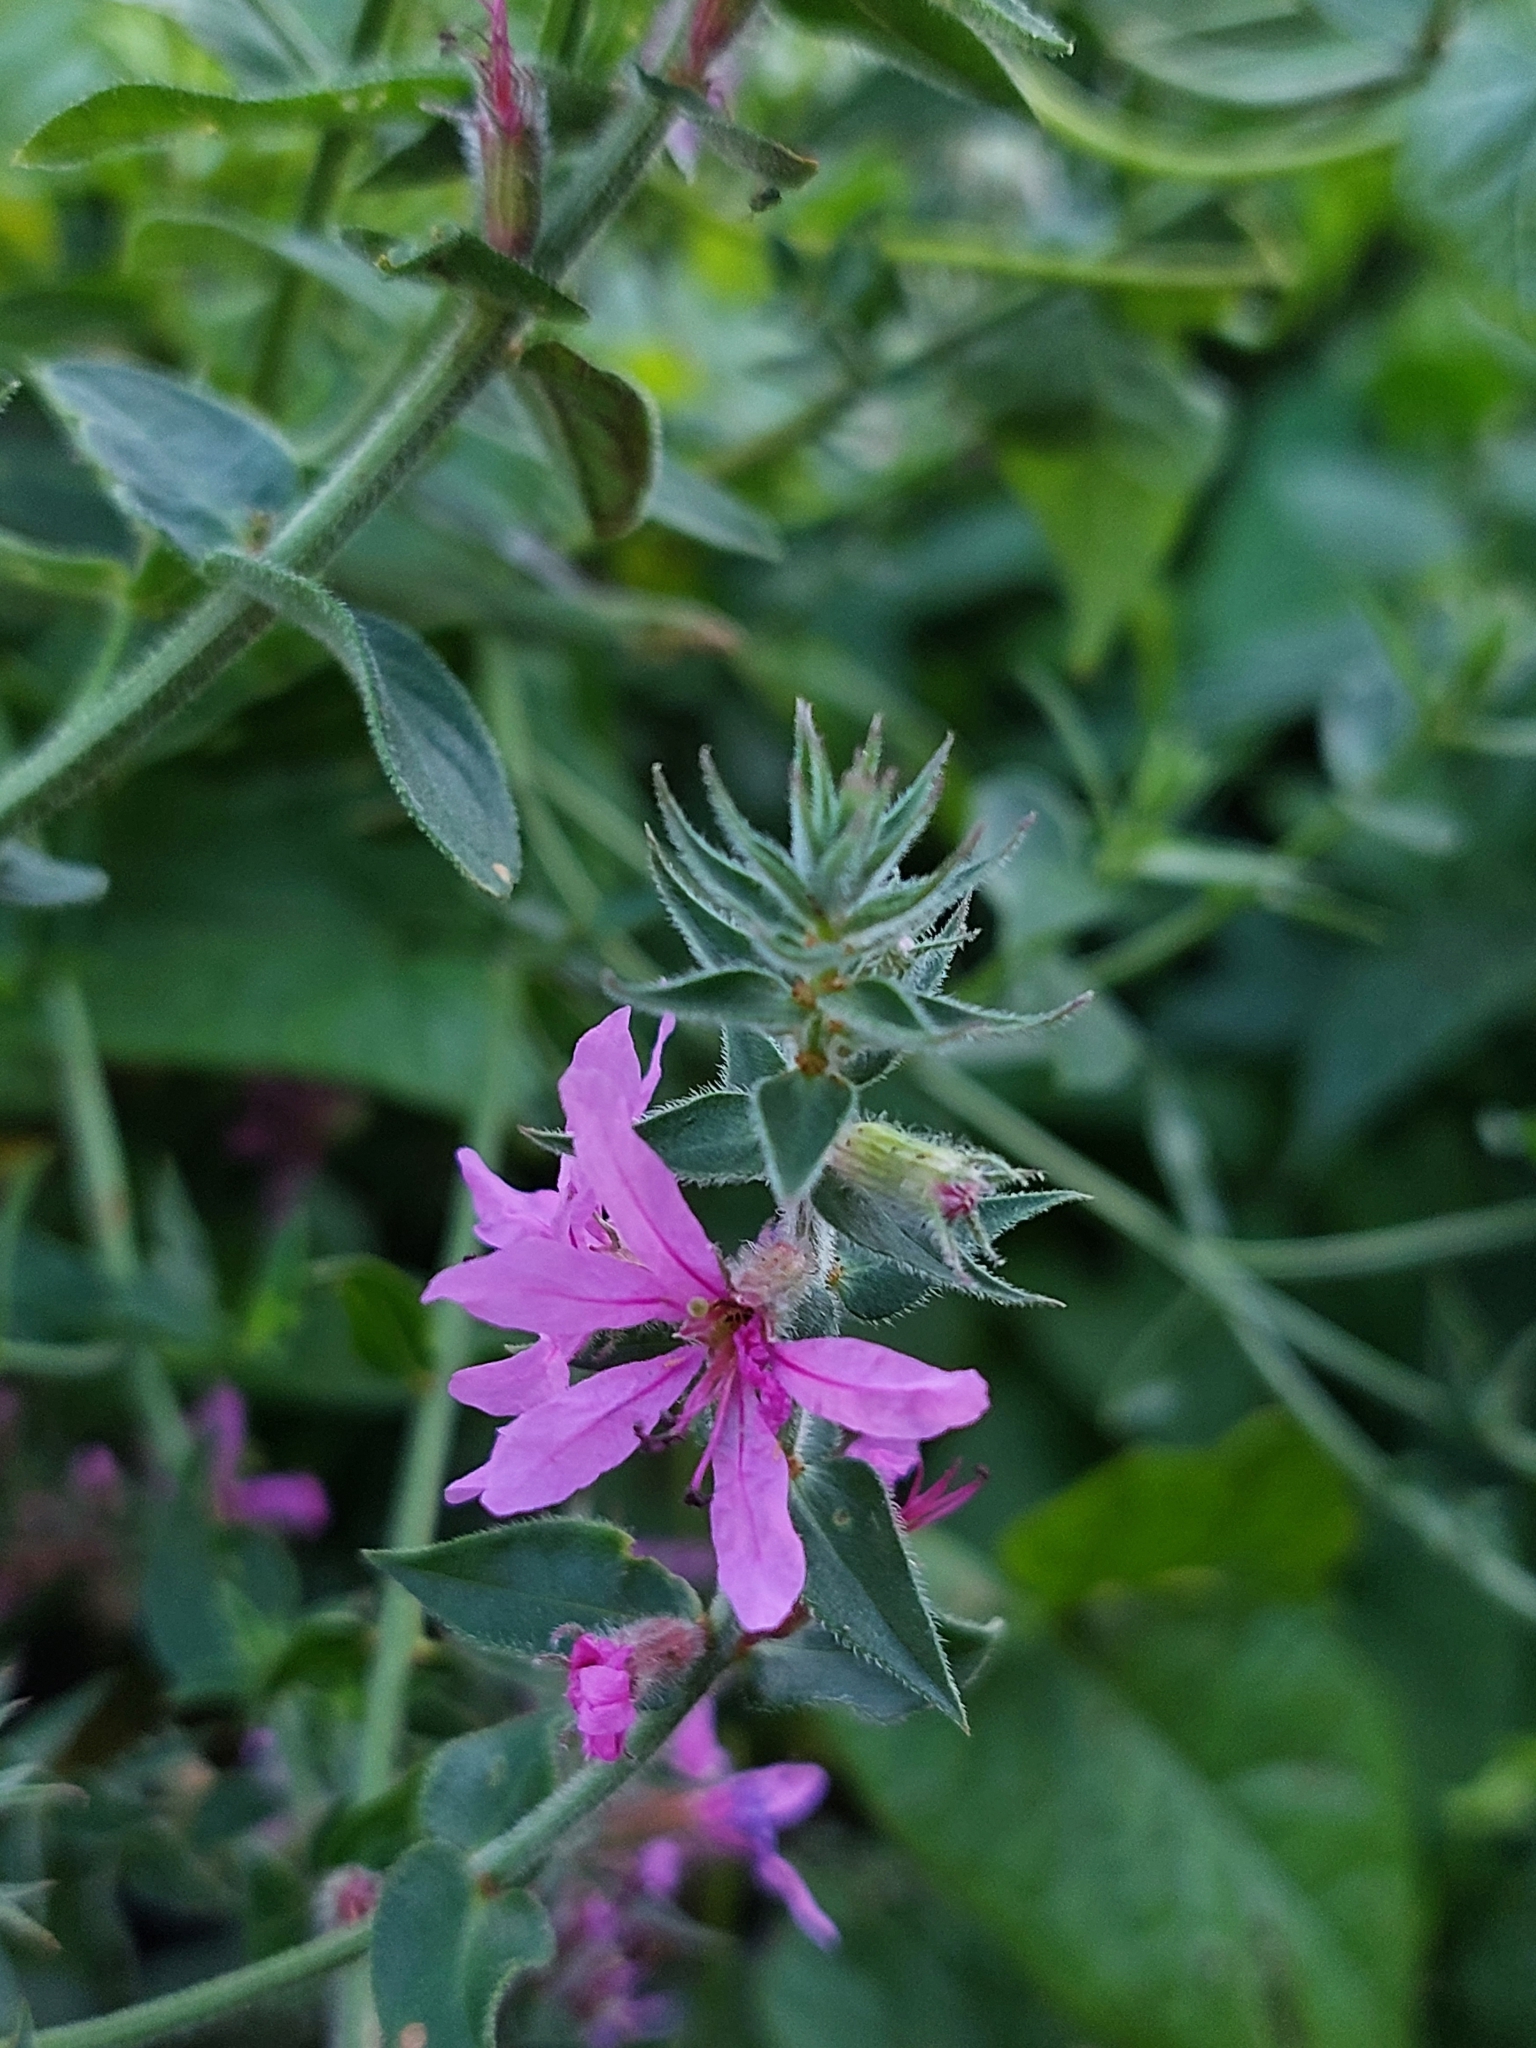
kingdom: Plantae
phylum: Tracheophyta
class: Magnoliopsida
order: Myrtales
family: Lythraceae
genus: Lythrum
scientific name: Lythrum salicaria
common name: Purple loosestrife
